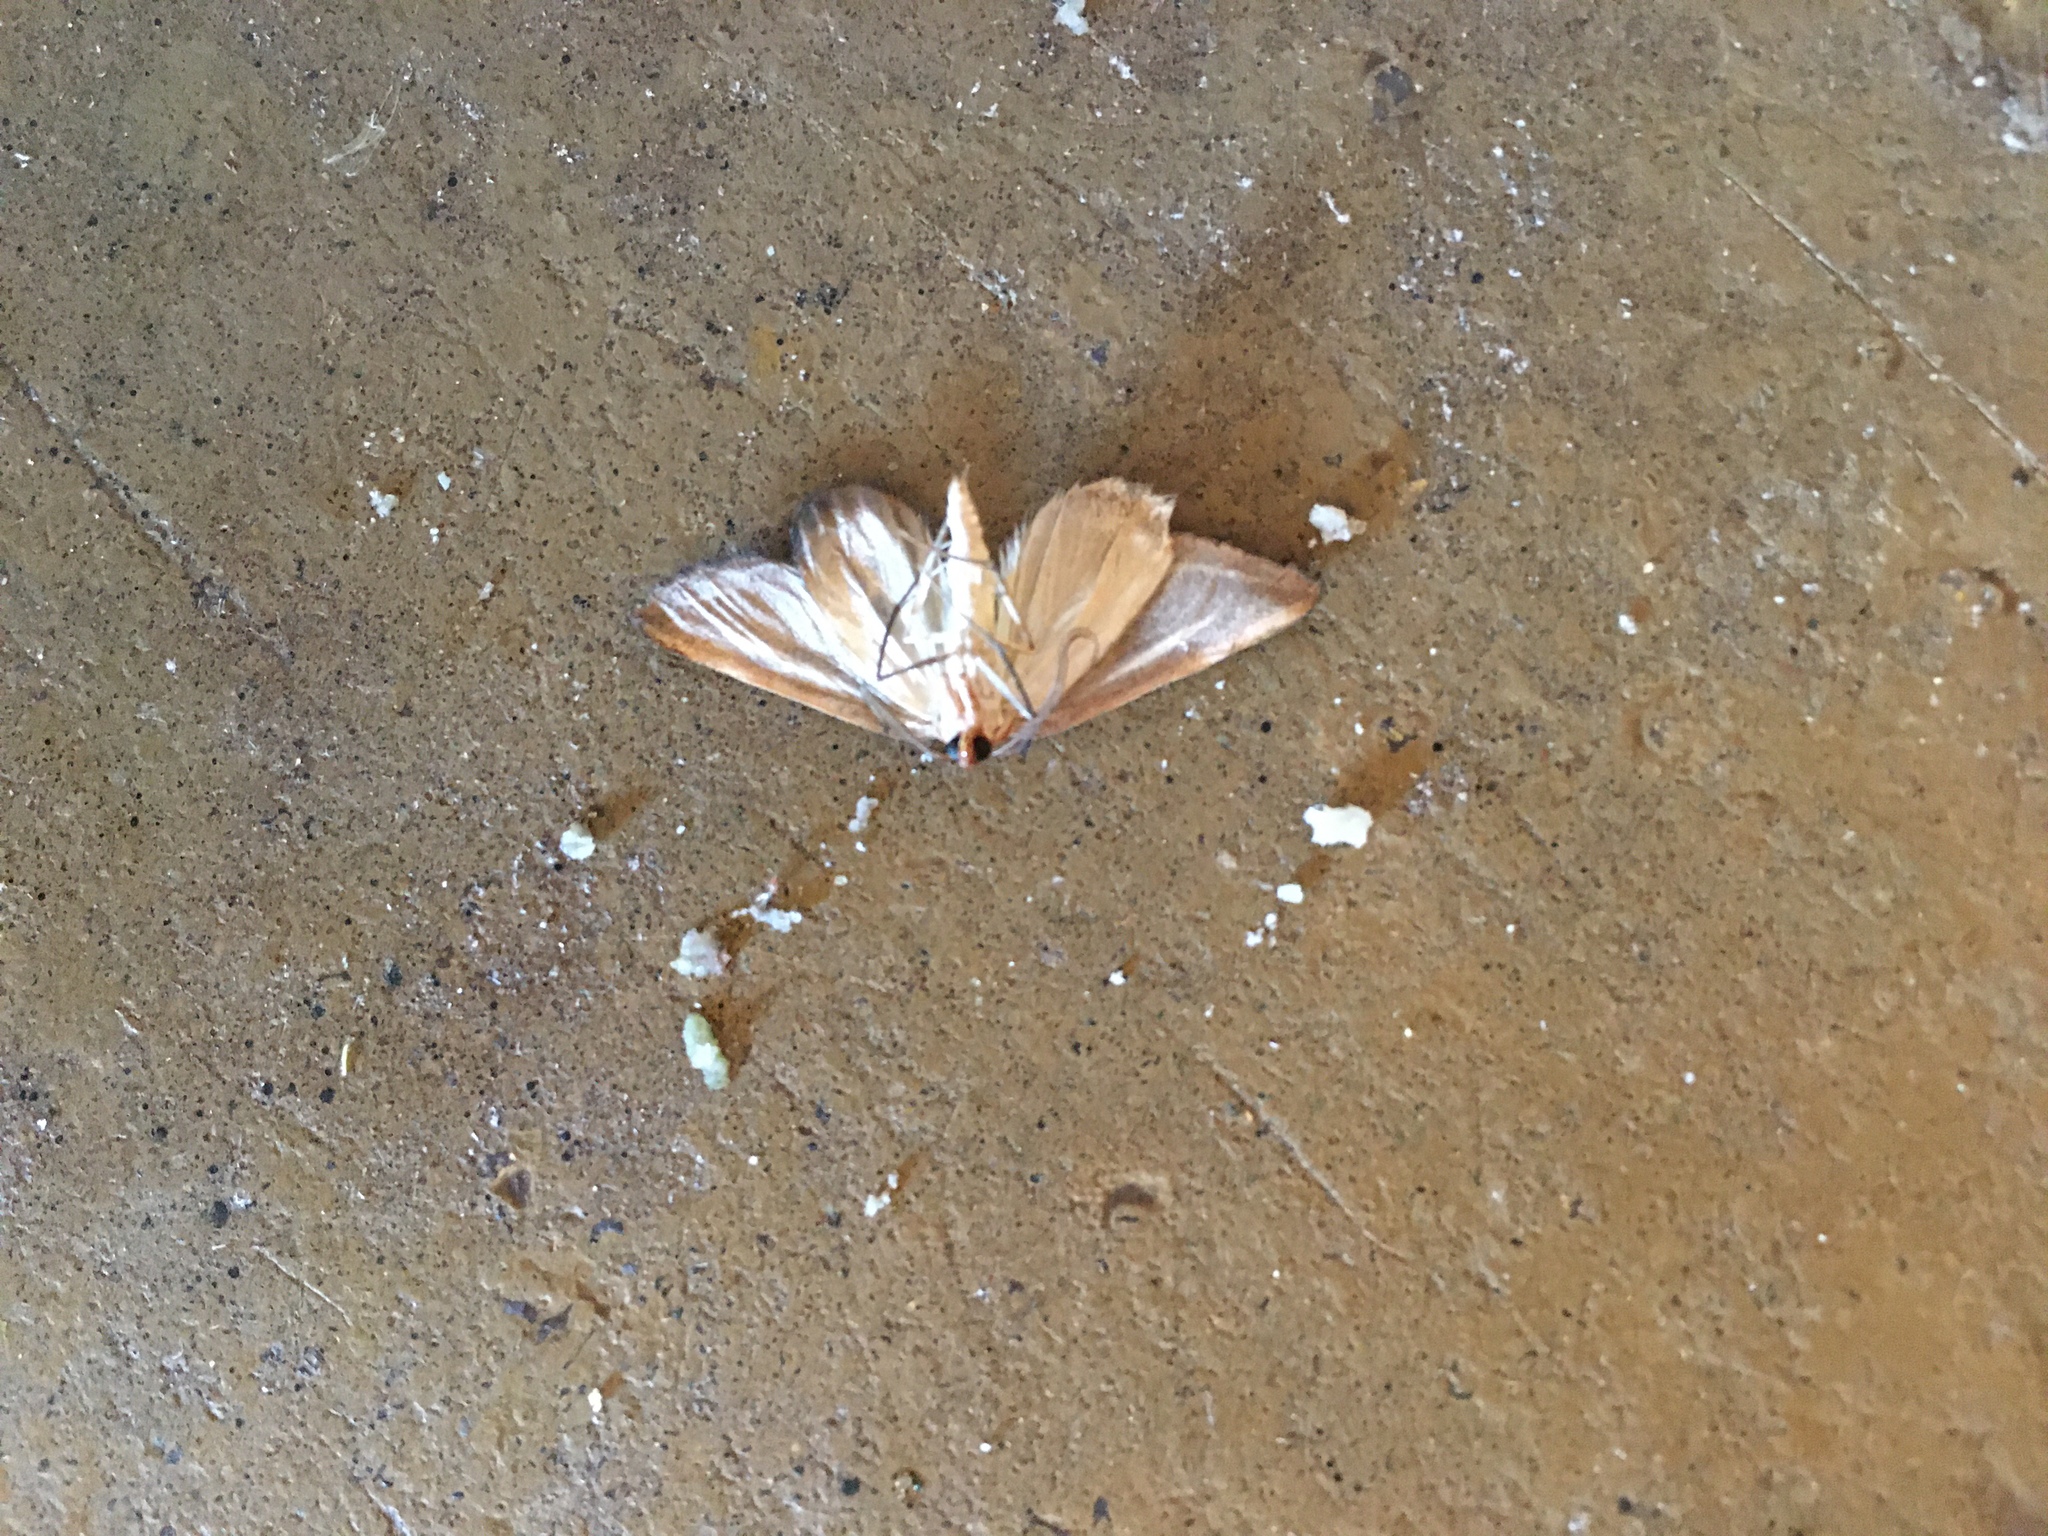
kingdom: Animalia
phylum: Arthropoda
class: Insecta
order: Lepidoptera
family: Geometridae
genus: Pseudomaenas
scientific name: Pseudomaenas leucograpta
